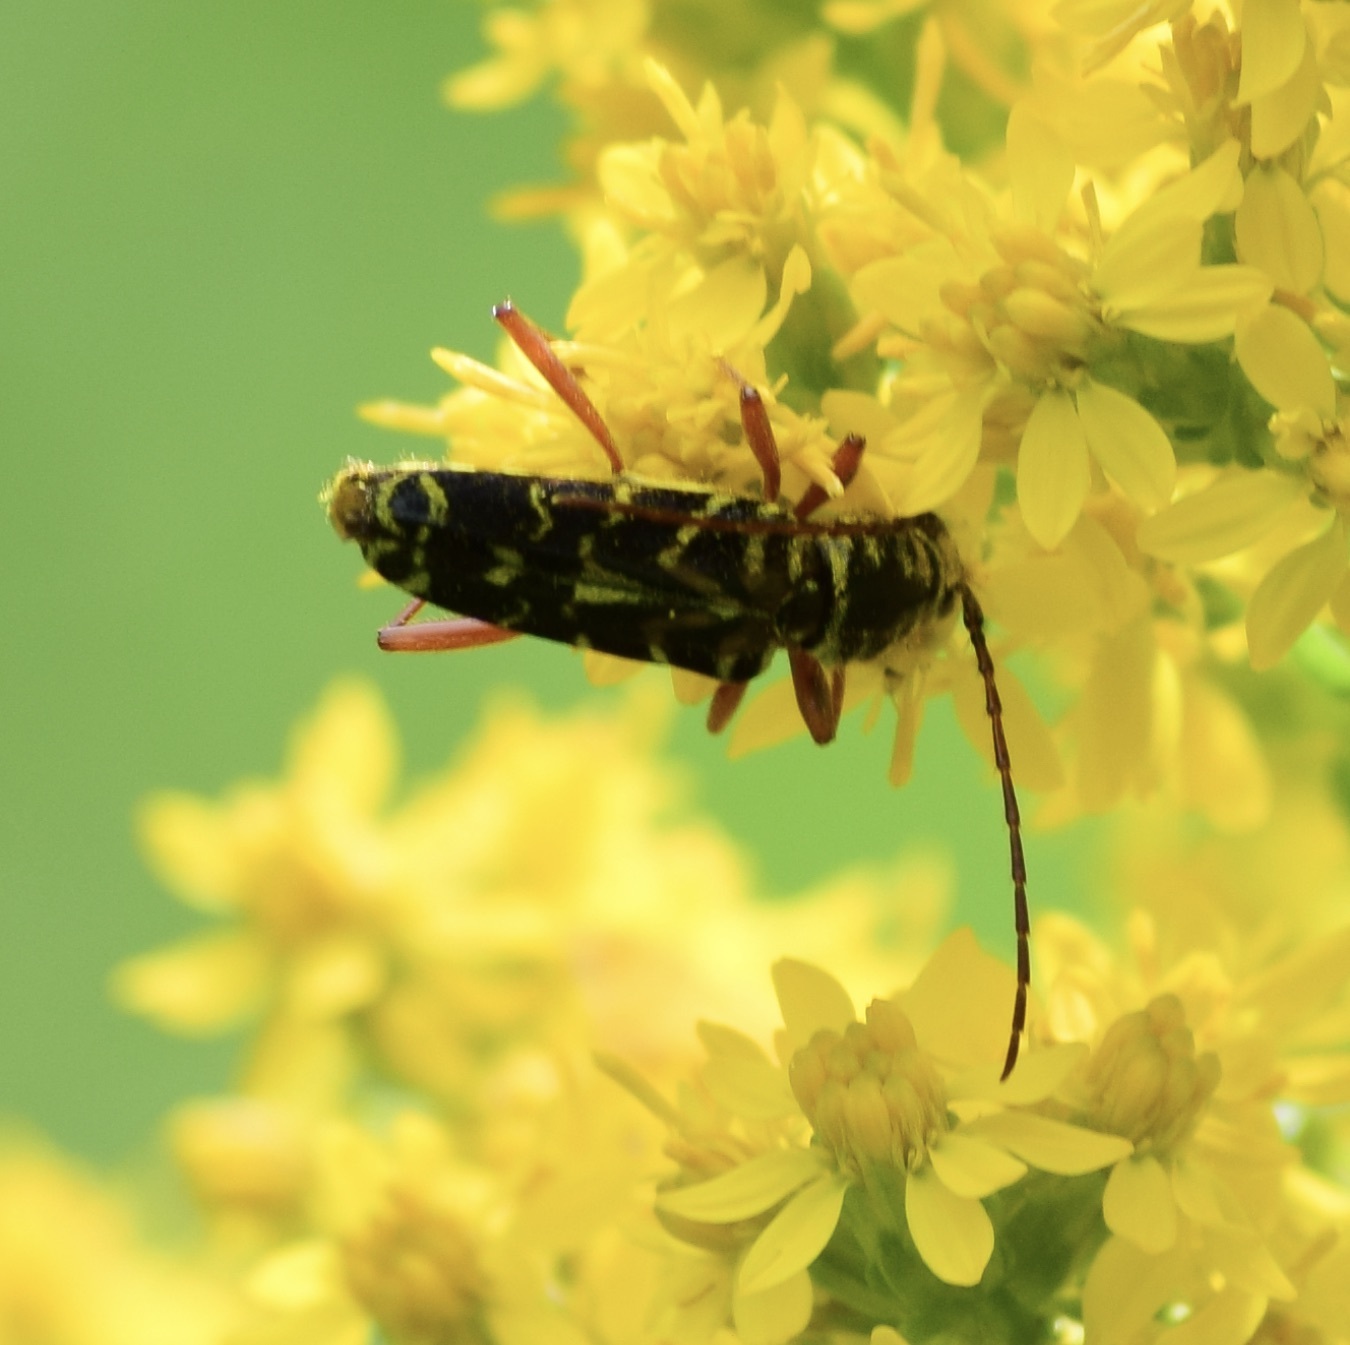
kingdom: Animalia
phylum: Arthropoda
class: Insecta
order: Coleoptera
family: Cerambycidae
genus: Megacyllene
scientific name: Megacyllene robiniae
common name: Locust borer
